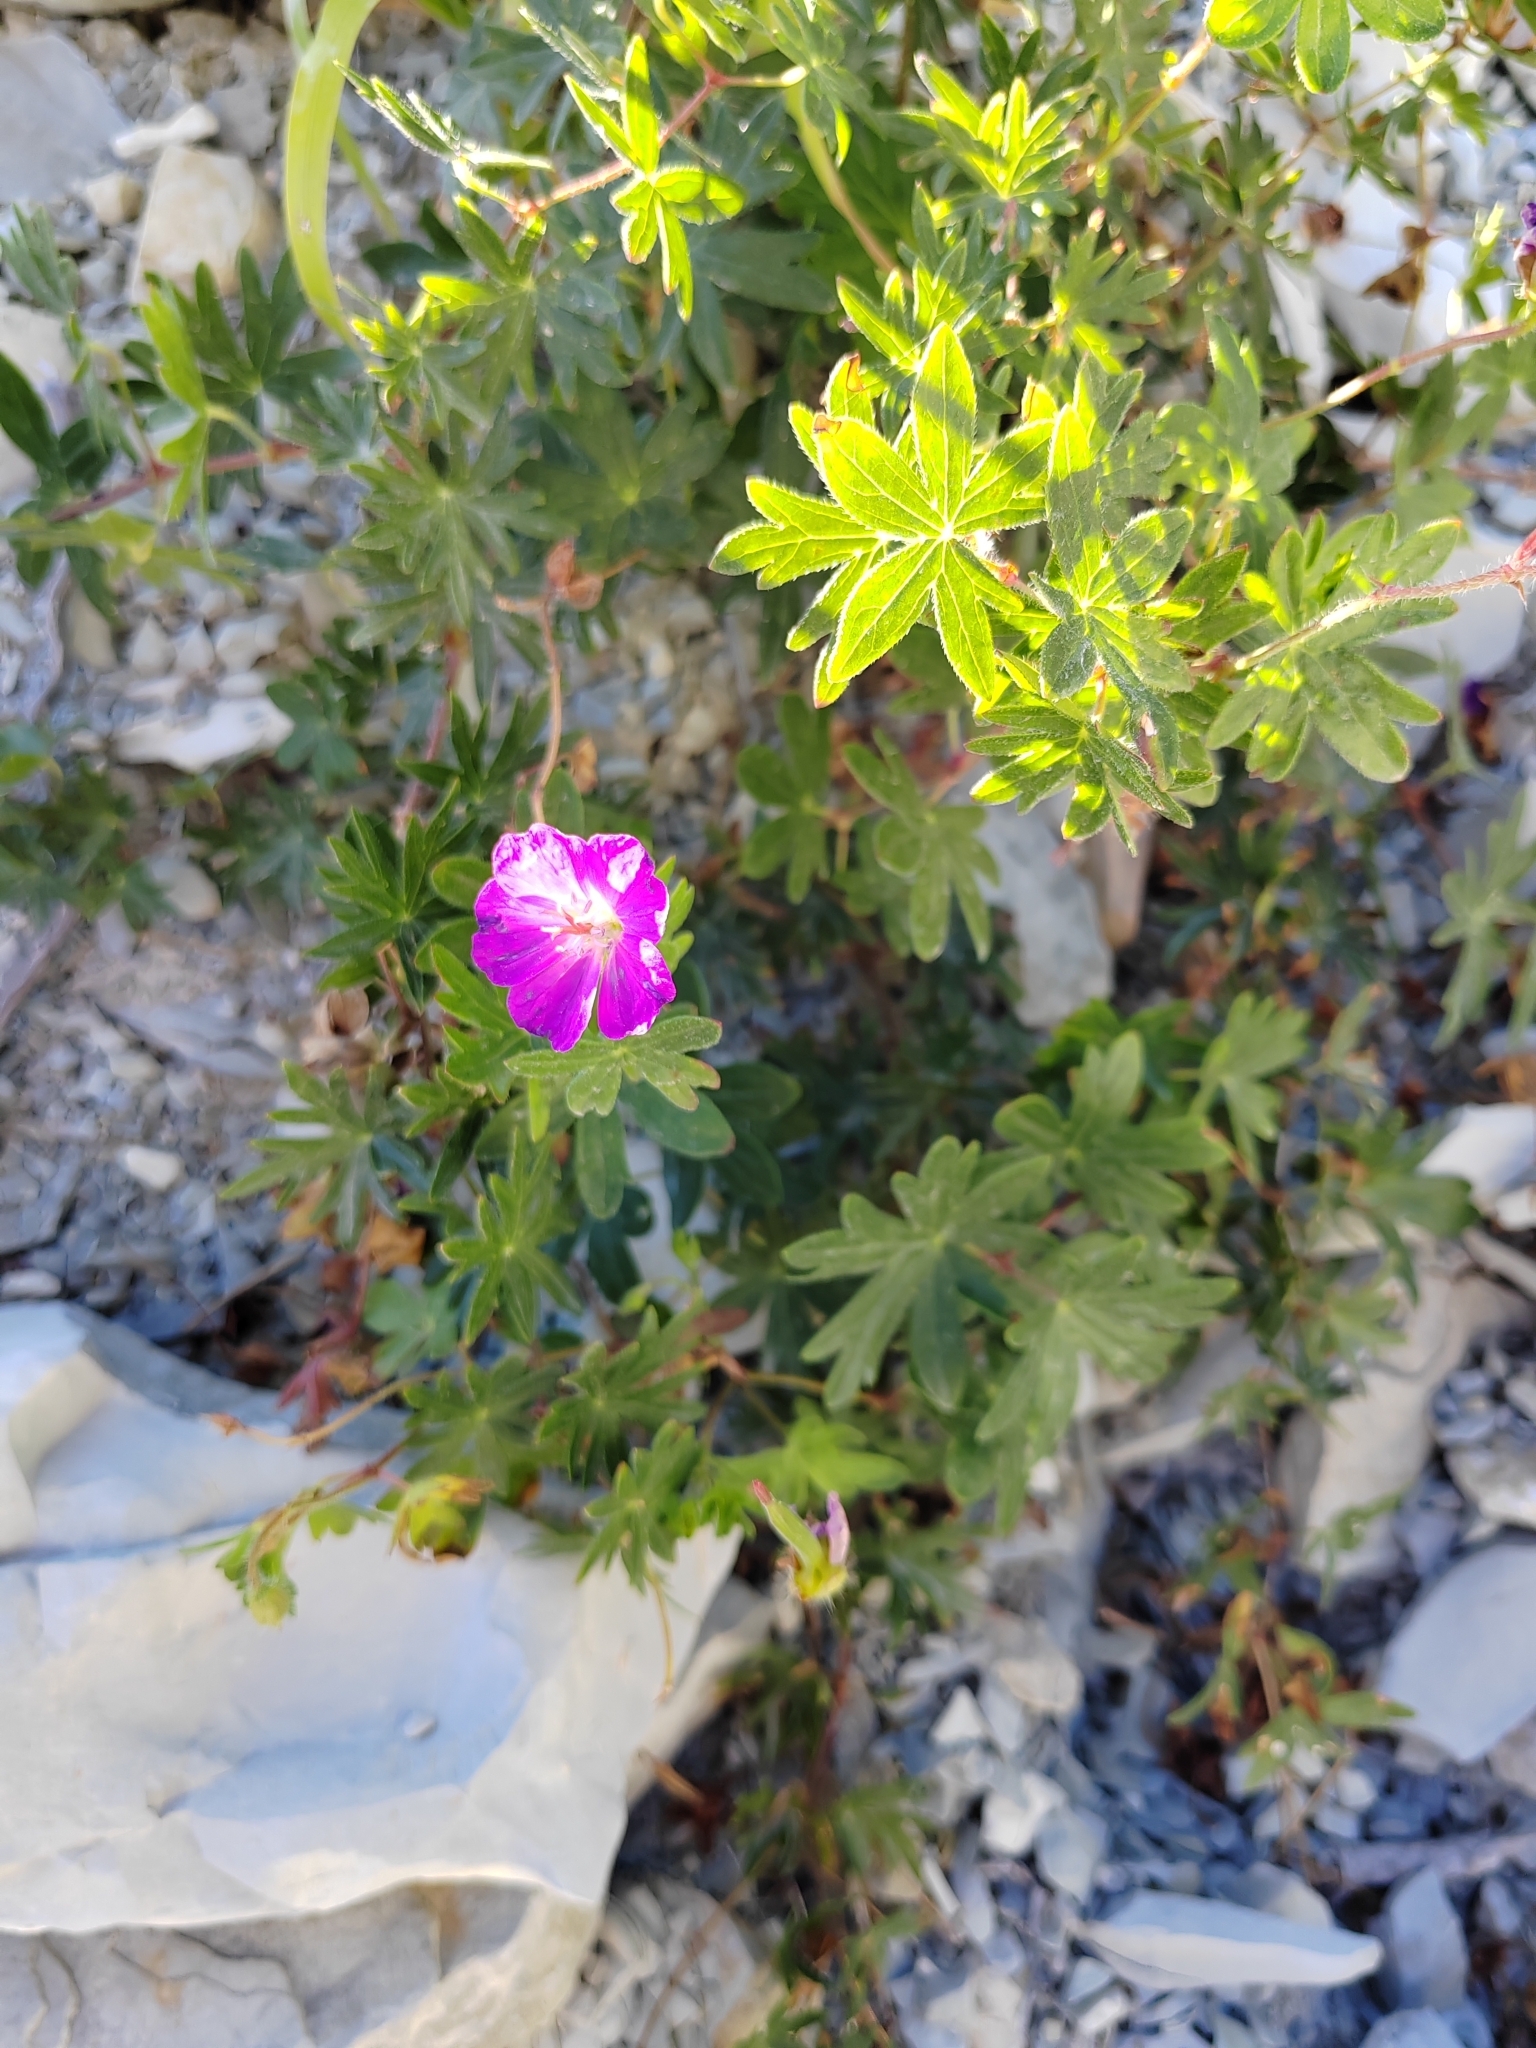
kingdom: Plantae
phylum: Tracheophyta
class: Magnoliopsida
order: Geraniales
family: Geraniaceae
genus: Geranium
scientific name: Geranium sanguineum
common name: Bloody crane's-bill
